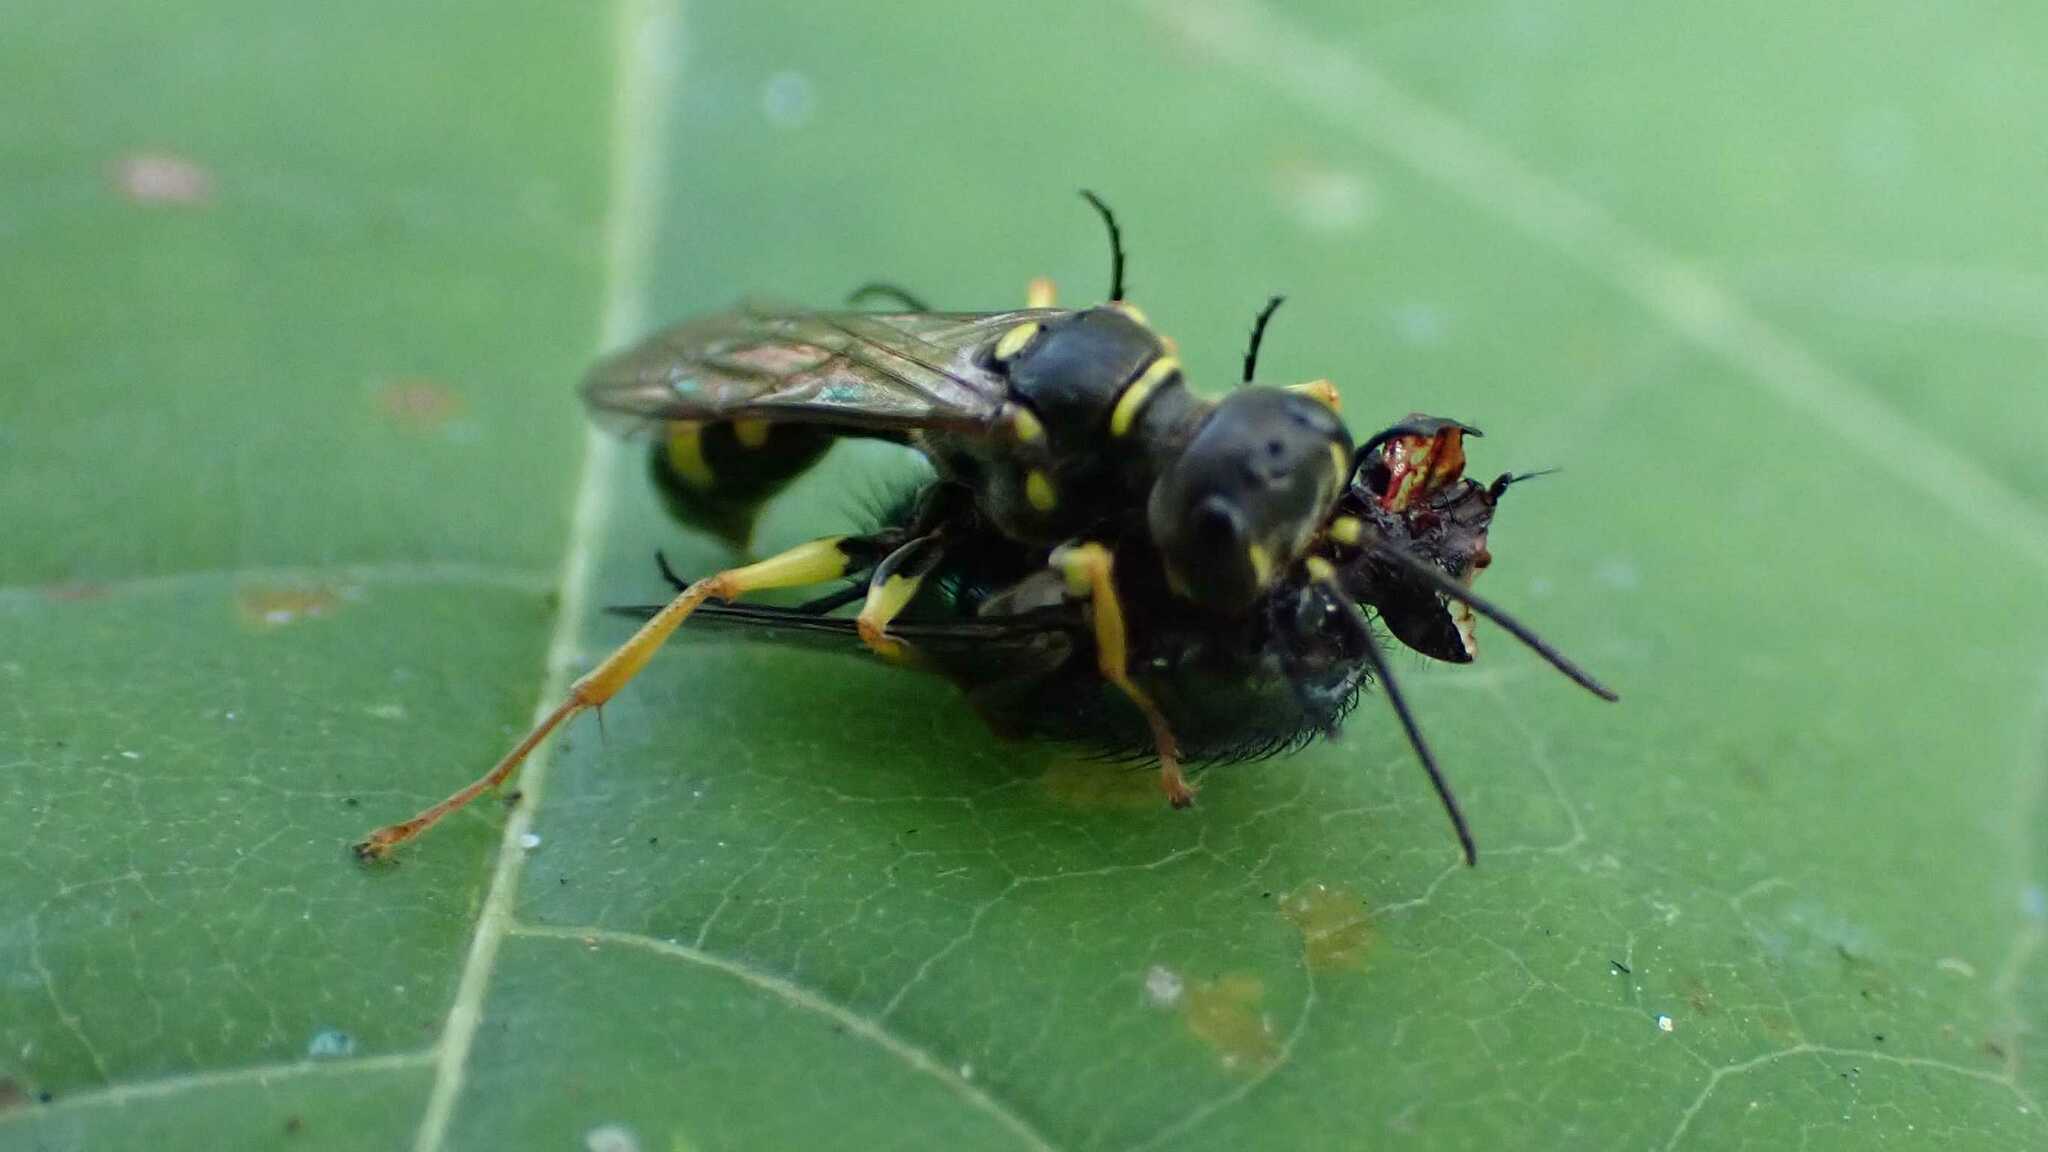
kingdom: Animalia
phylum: Arthropoda
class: Insecta
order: Hymenoptera
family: Crabronidae
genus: Mellinus
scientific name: Mellinus arvensis
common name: Field digger wasp
